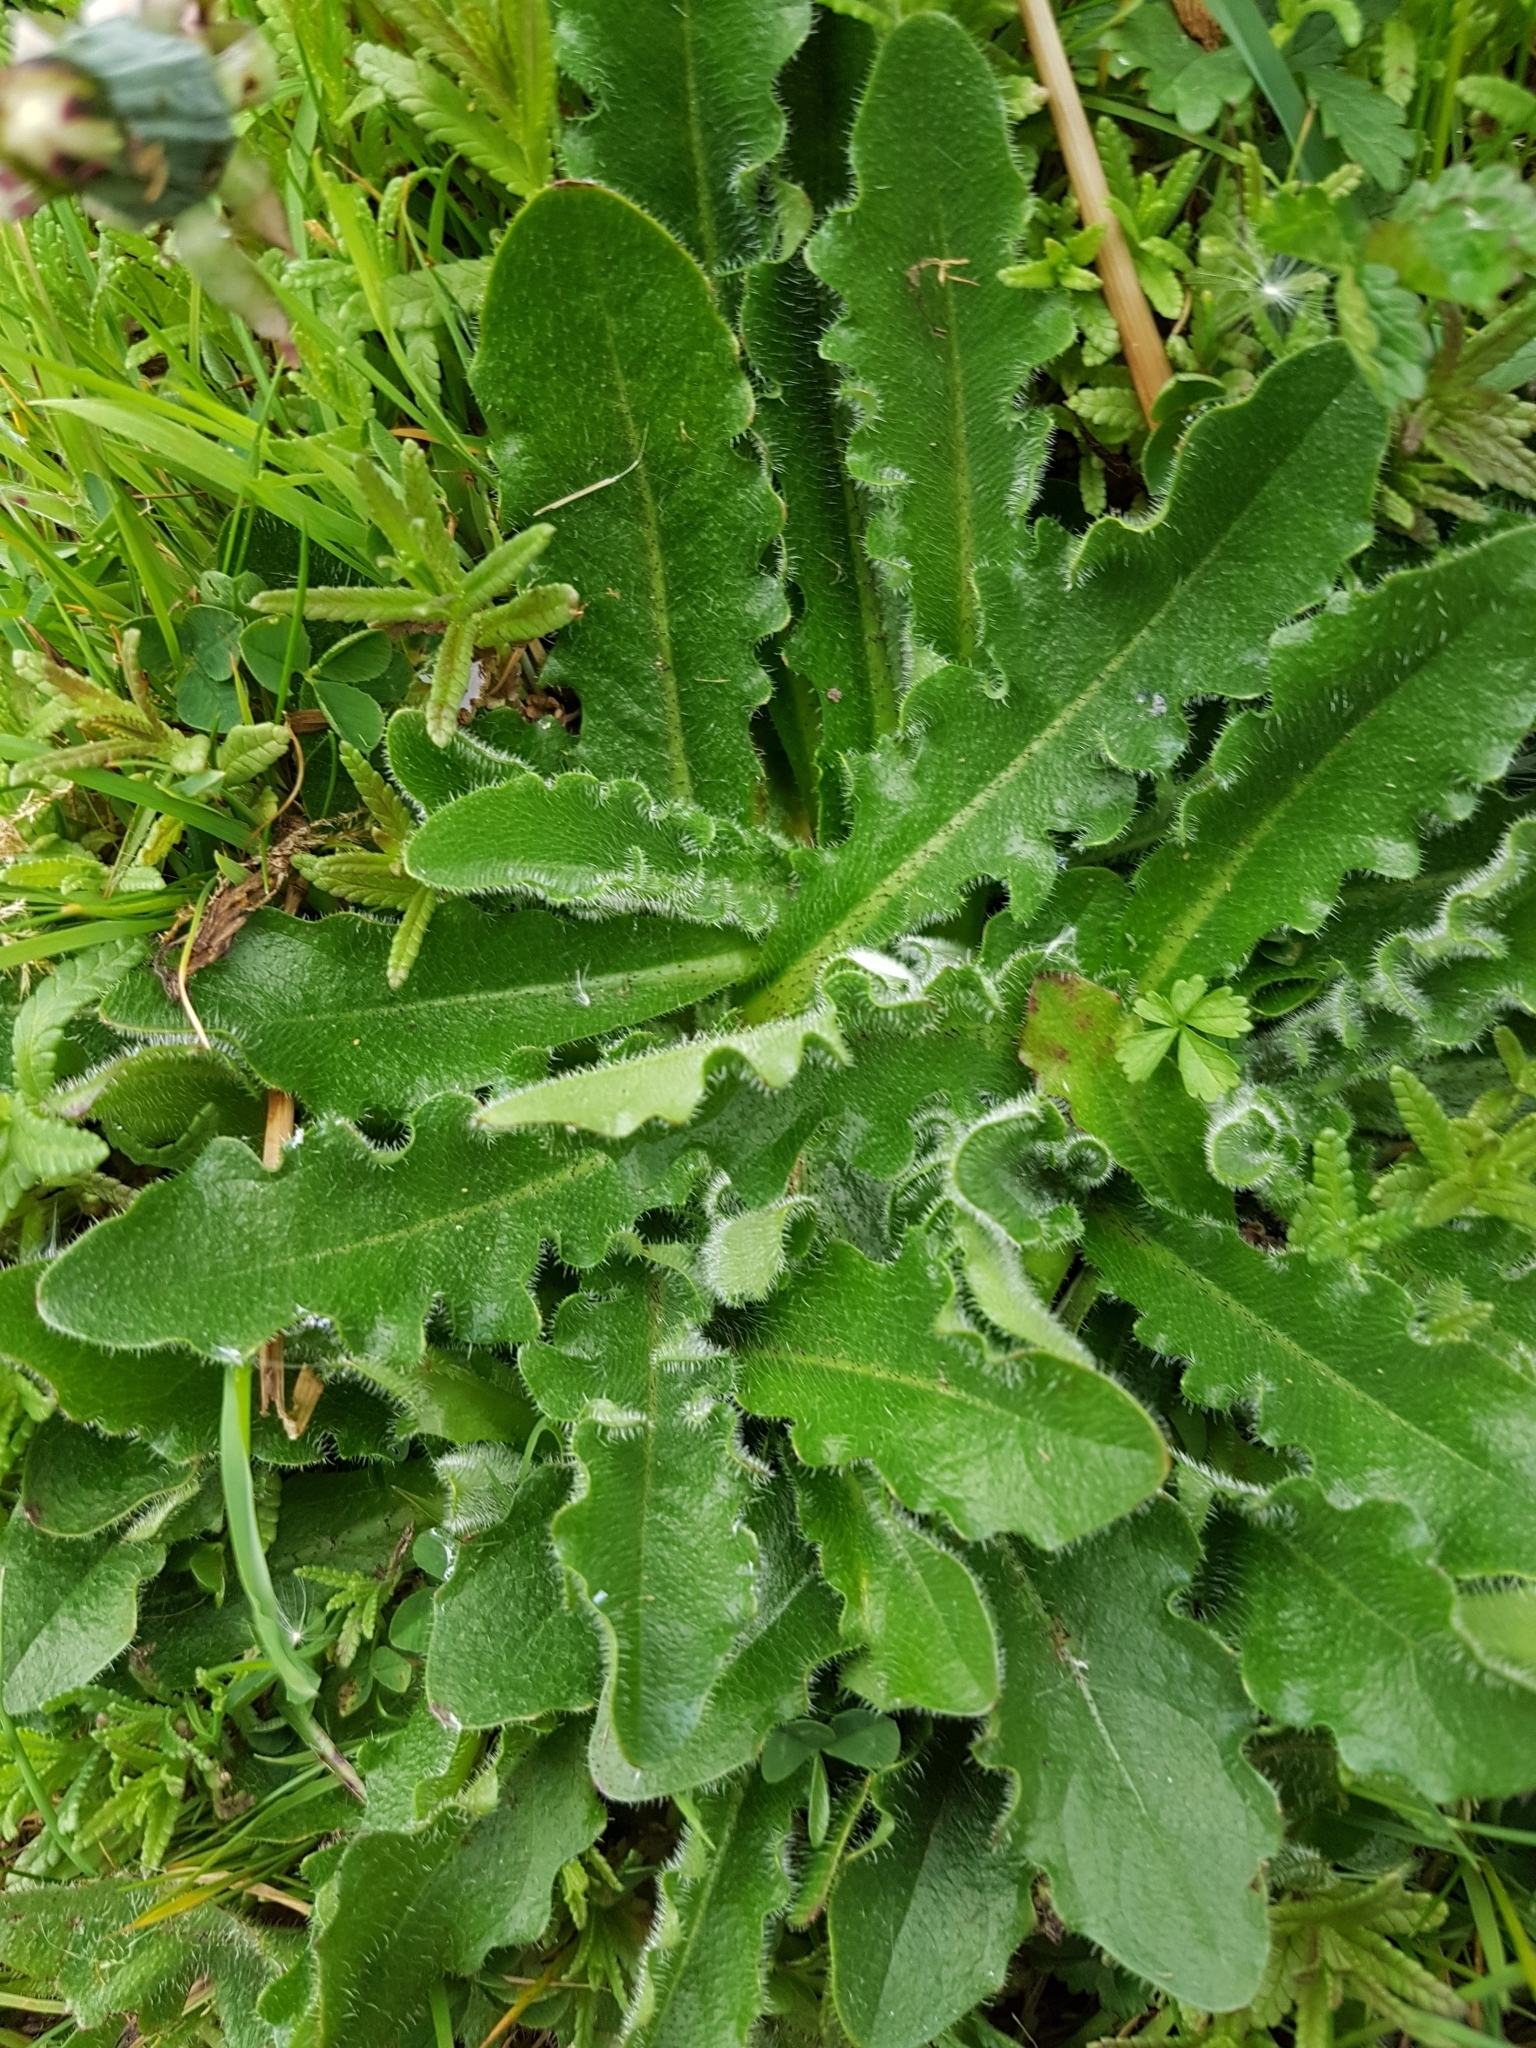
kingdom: Plantae
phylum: Tracheophyta
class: Magnoliopsida
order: Asterales
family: Asteraceae
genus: Hypochaeris
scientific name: Hypochaeris radicata
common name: Flatweed
